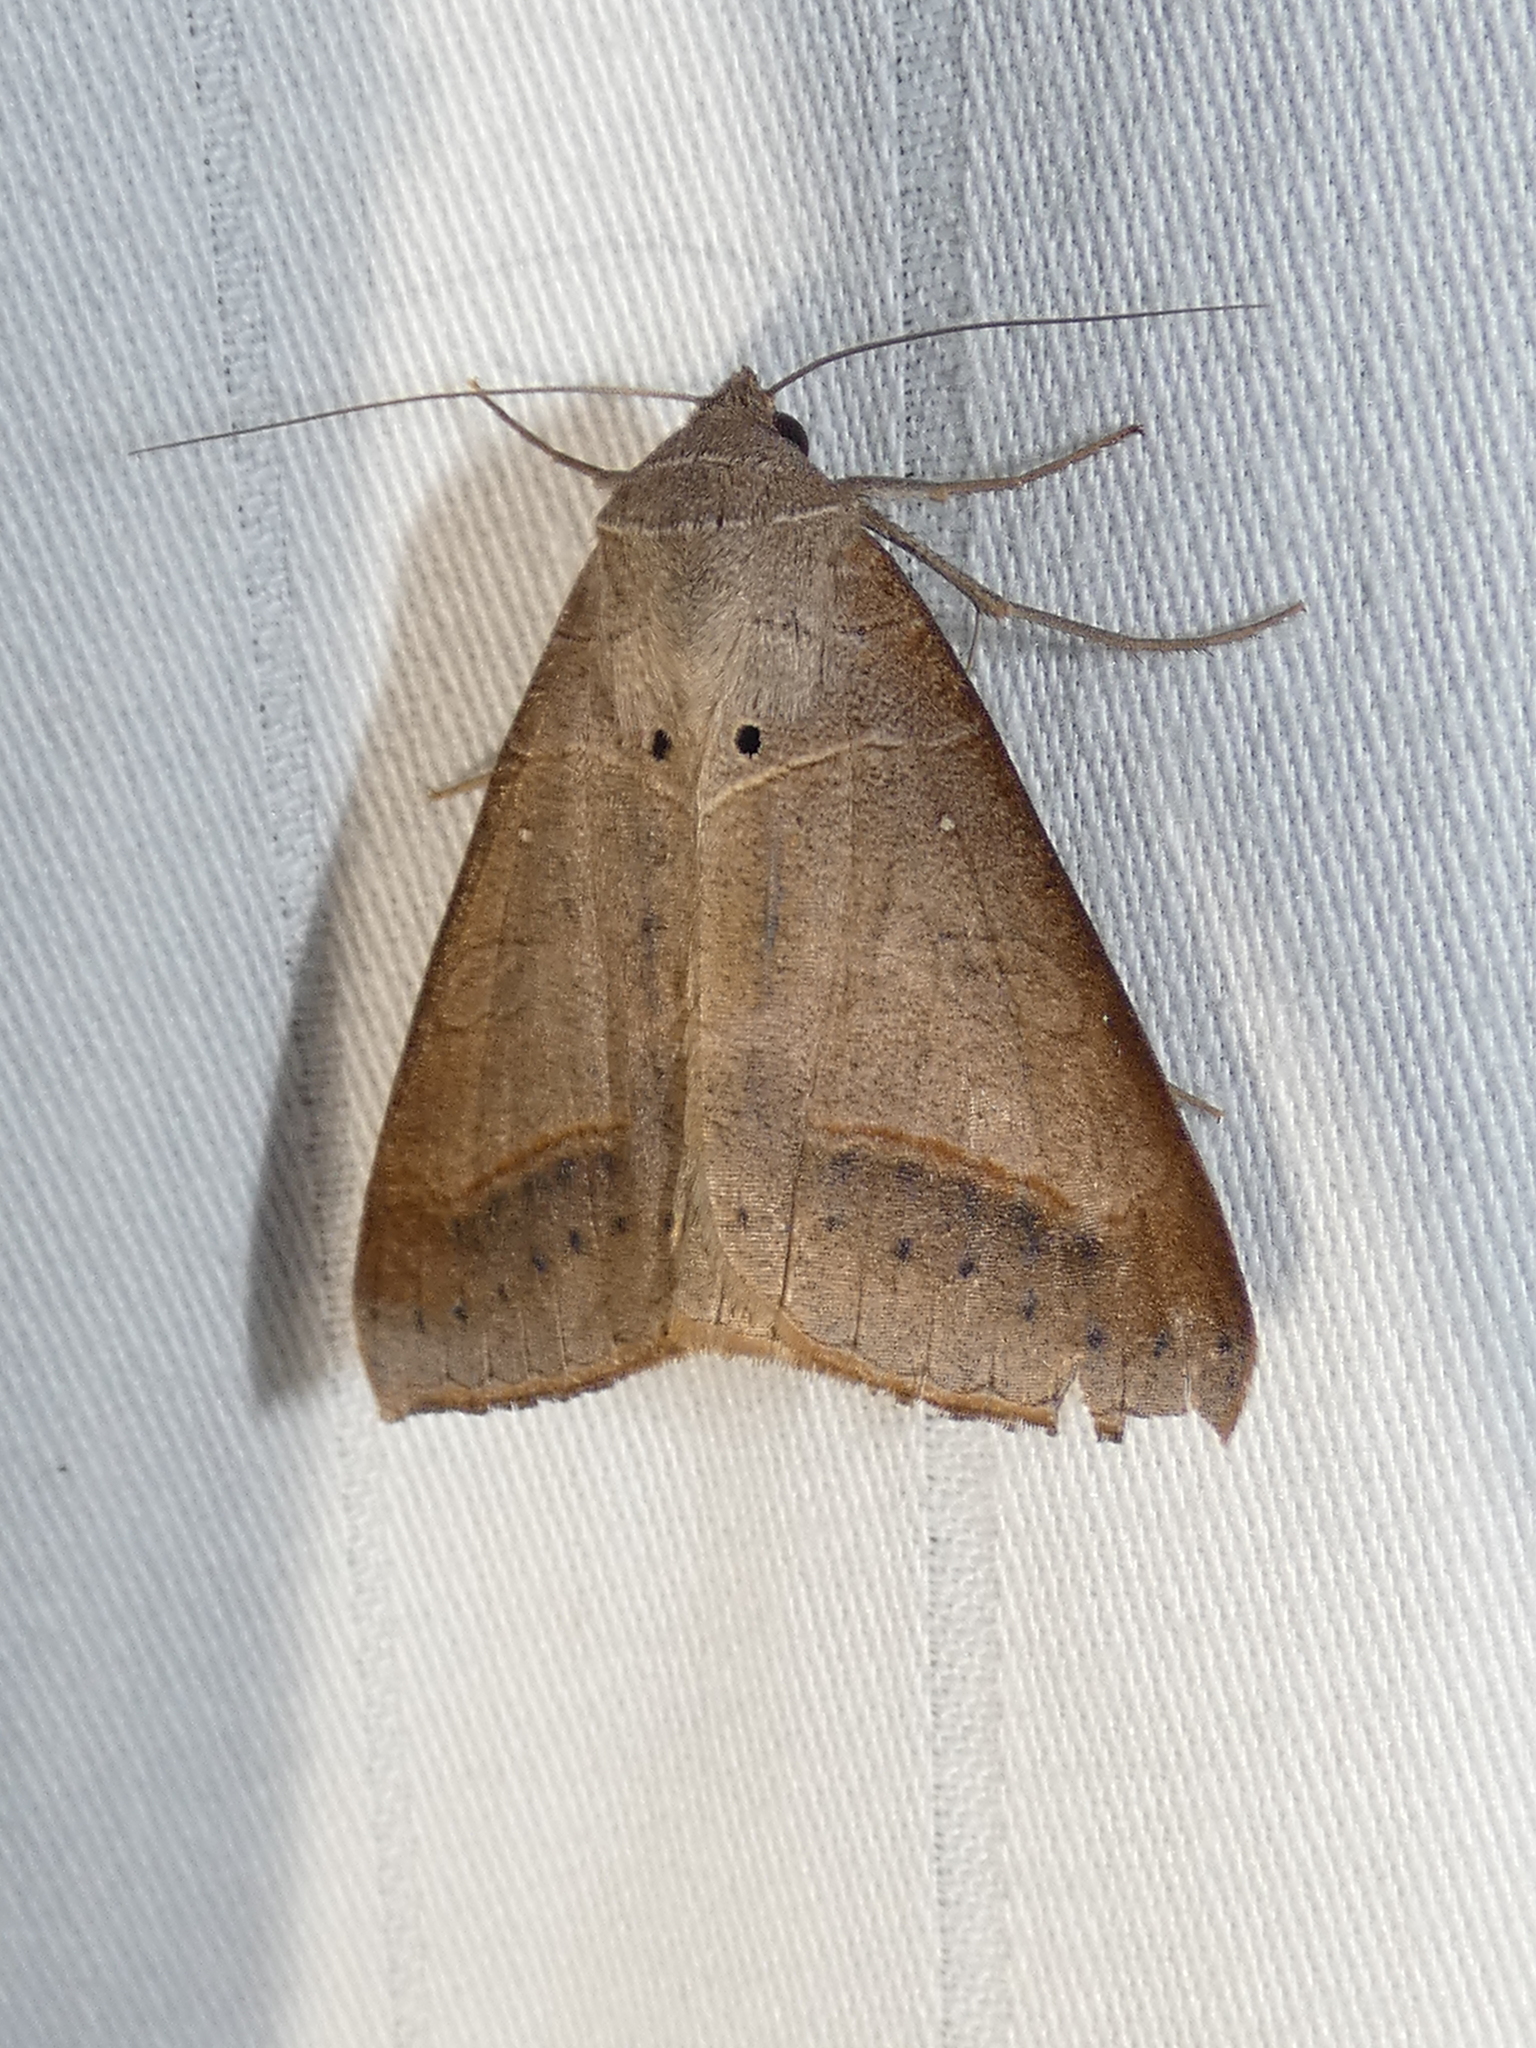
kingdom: Animalia
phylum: Arthropoda
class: Insecta
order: Lepidoptera
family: Erebidae
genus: Mocis
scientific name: Mocis marcida
